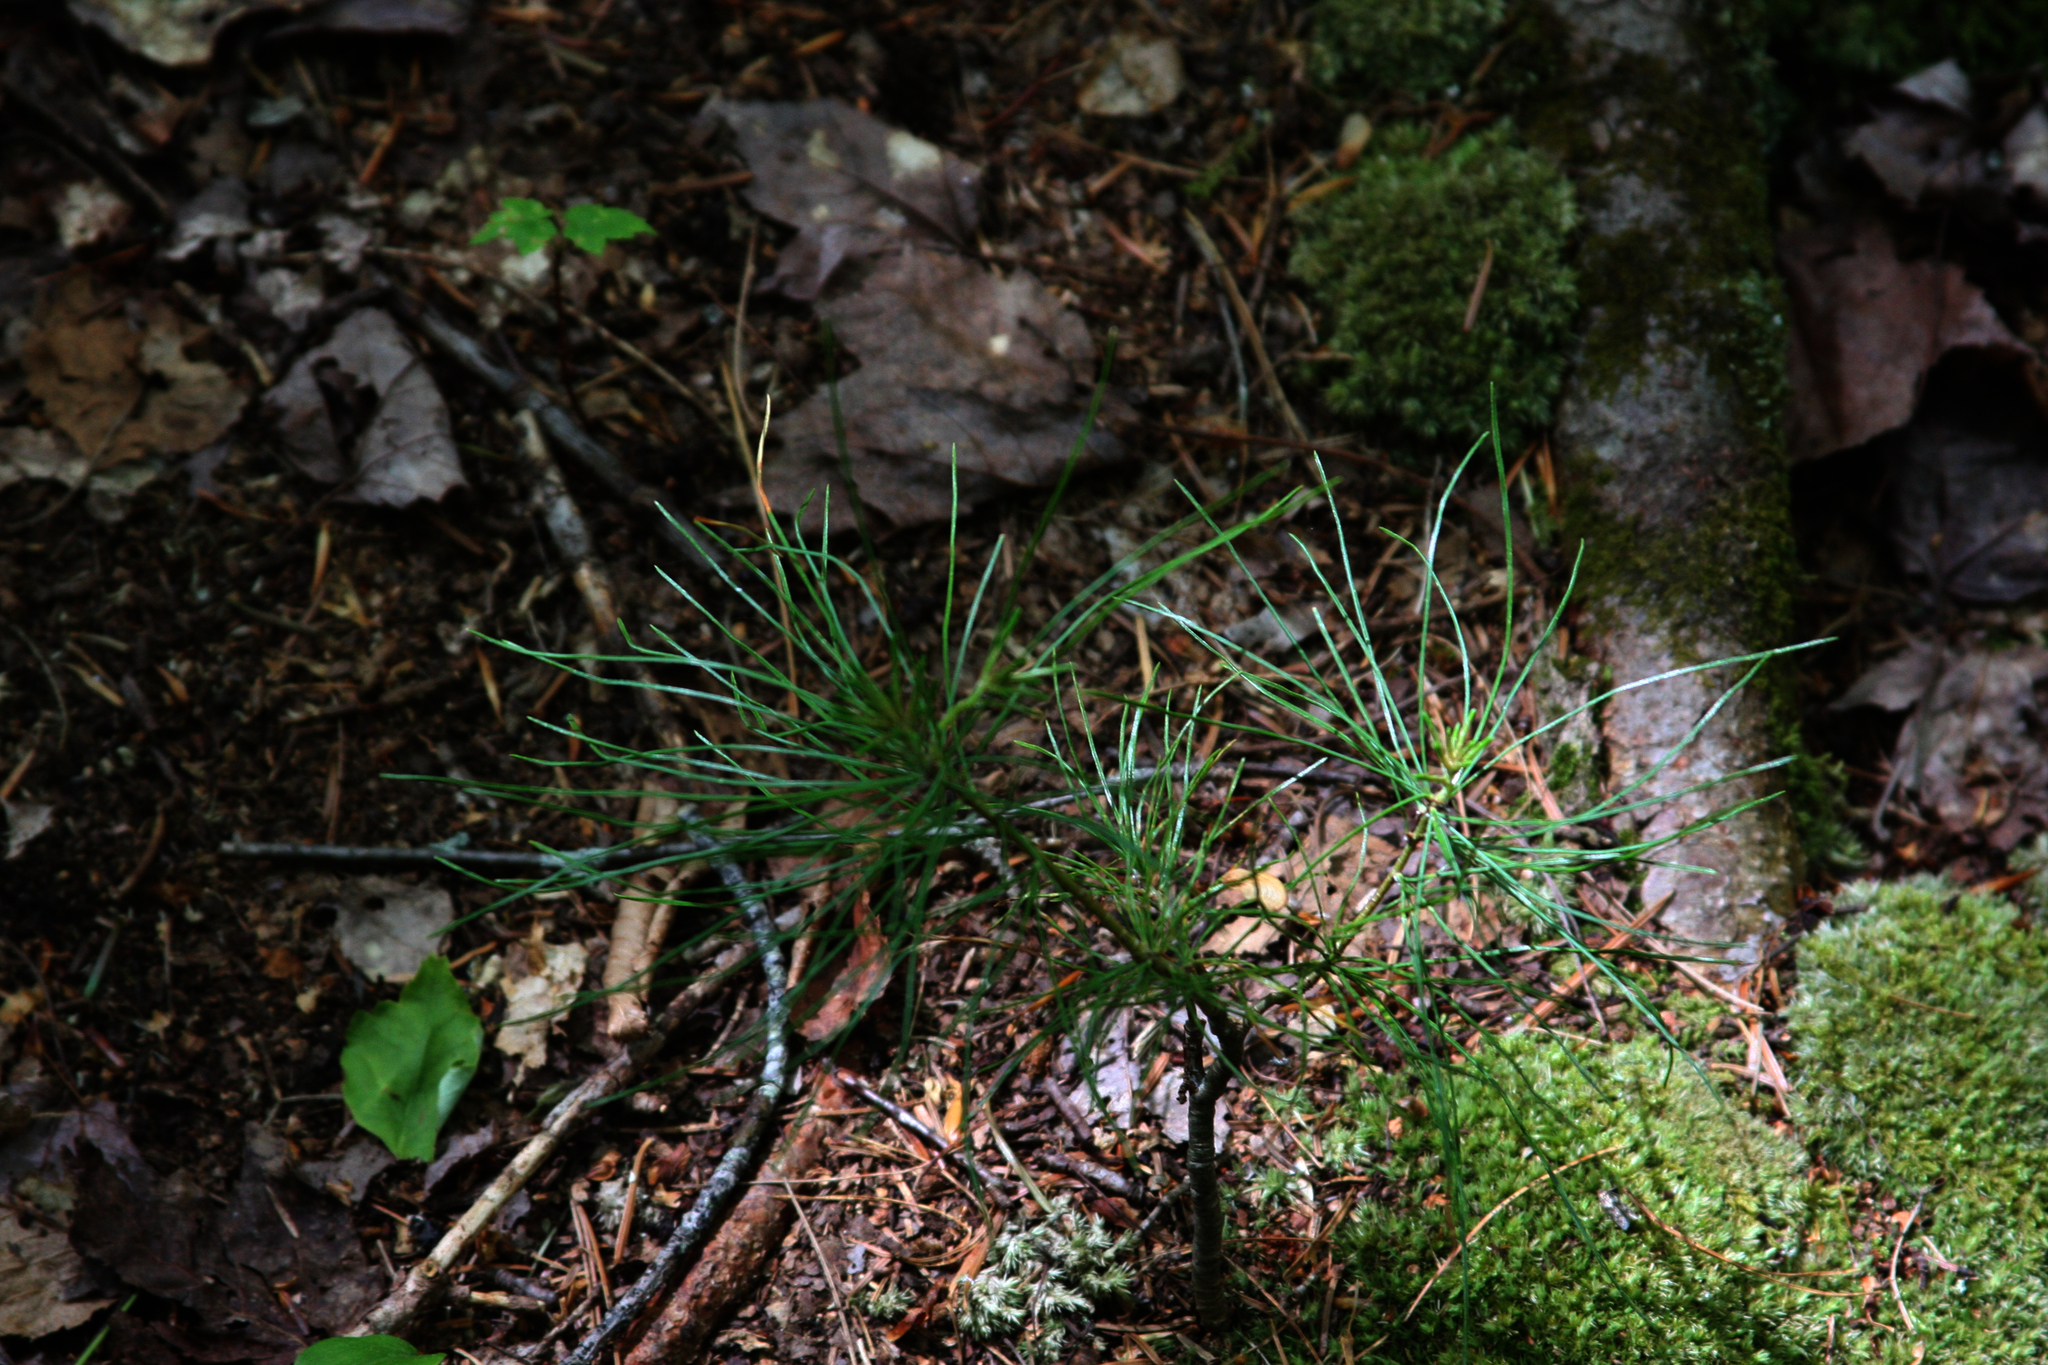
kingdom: Plantae
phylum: Tracheophyta
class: Pinopsida
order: Pinales
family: Pinaceae
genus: Pinus
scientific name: Pinus strobus
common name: Weymouth pine
